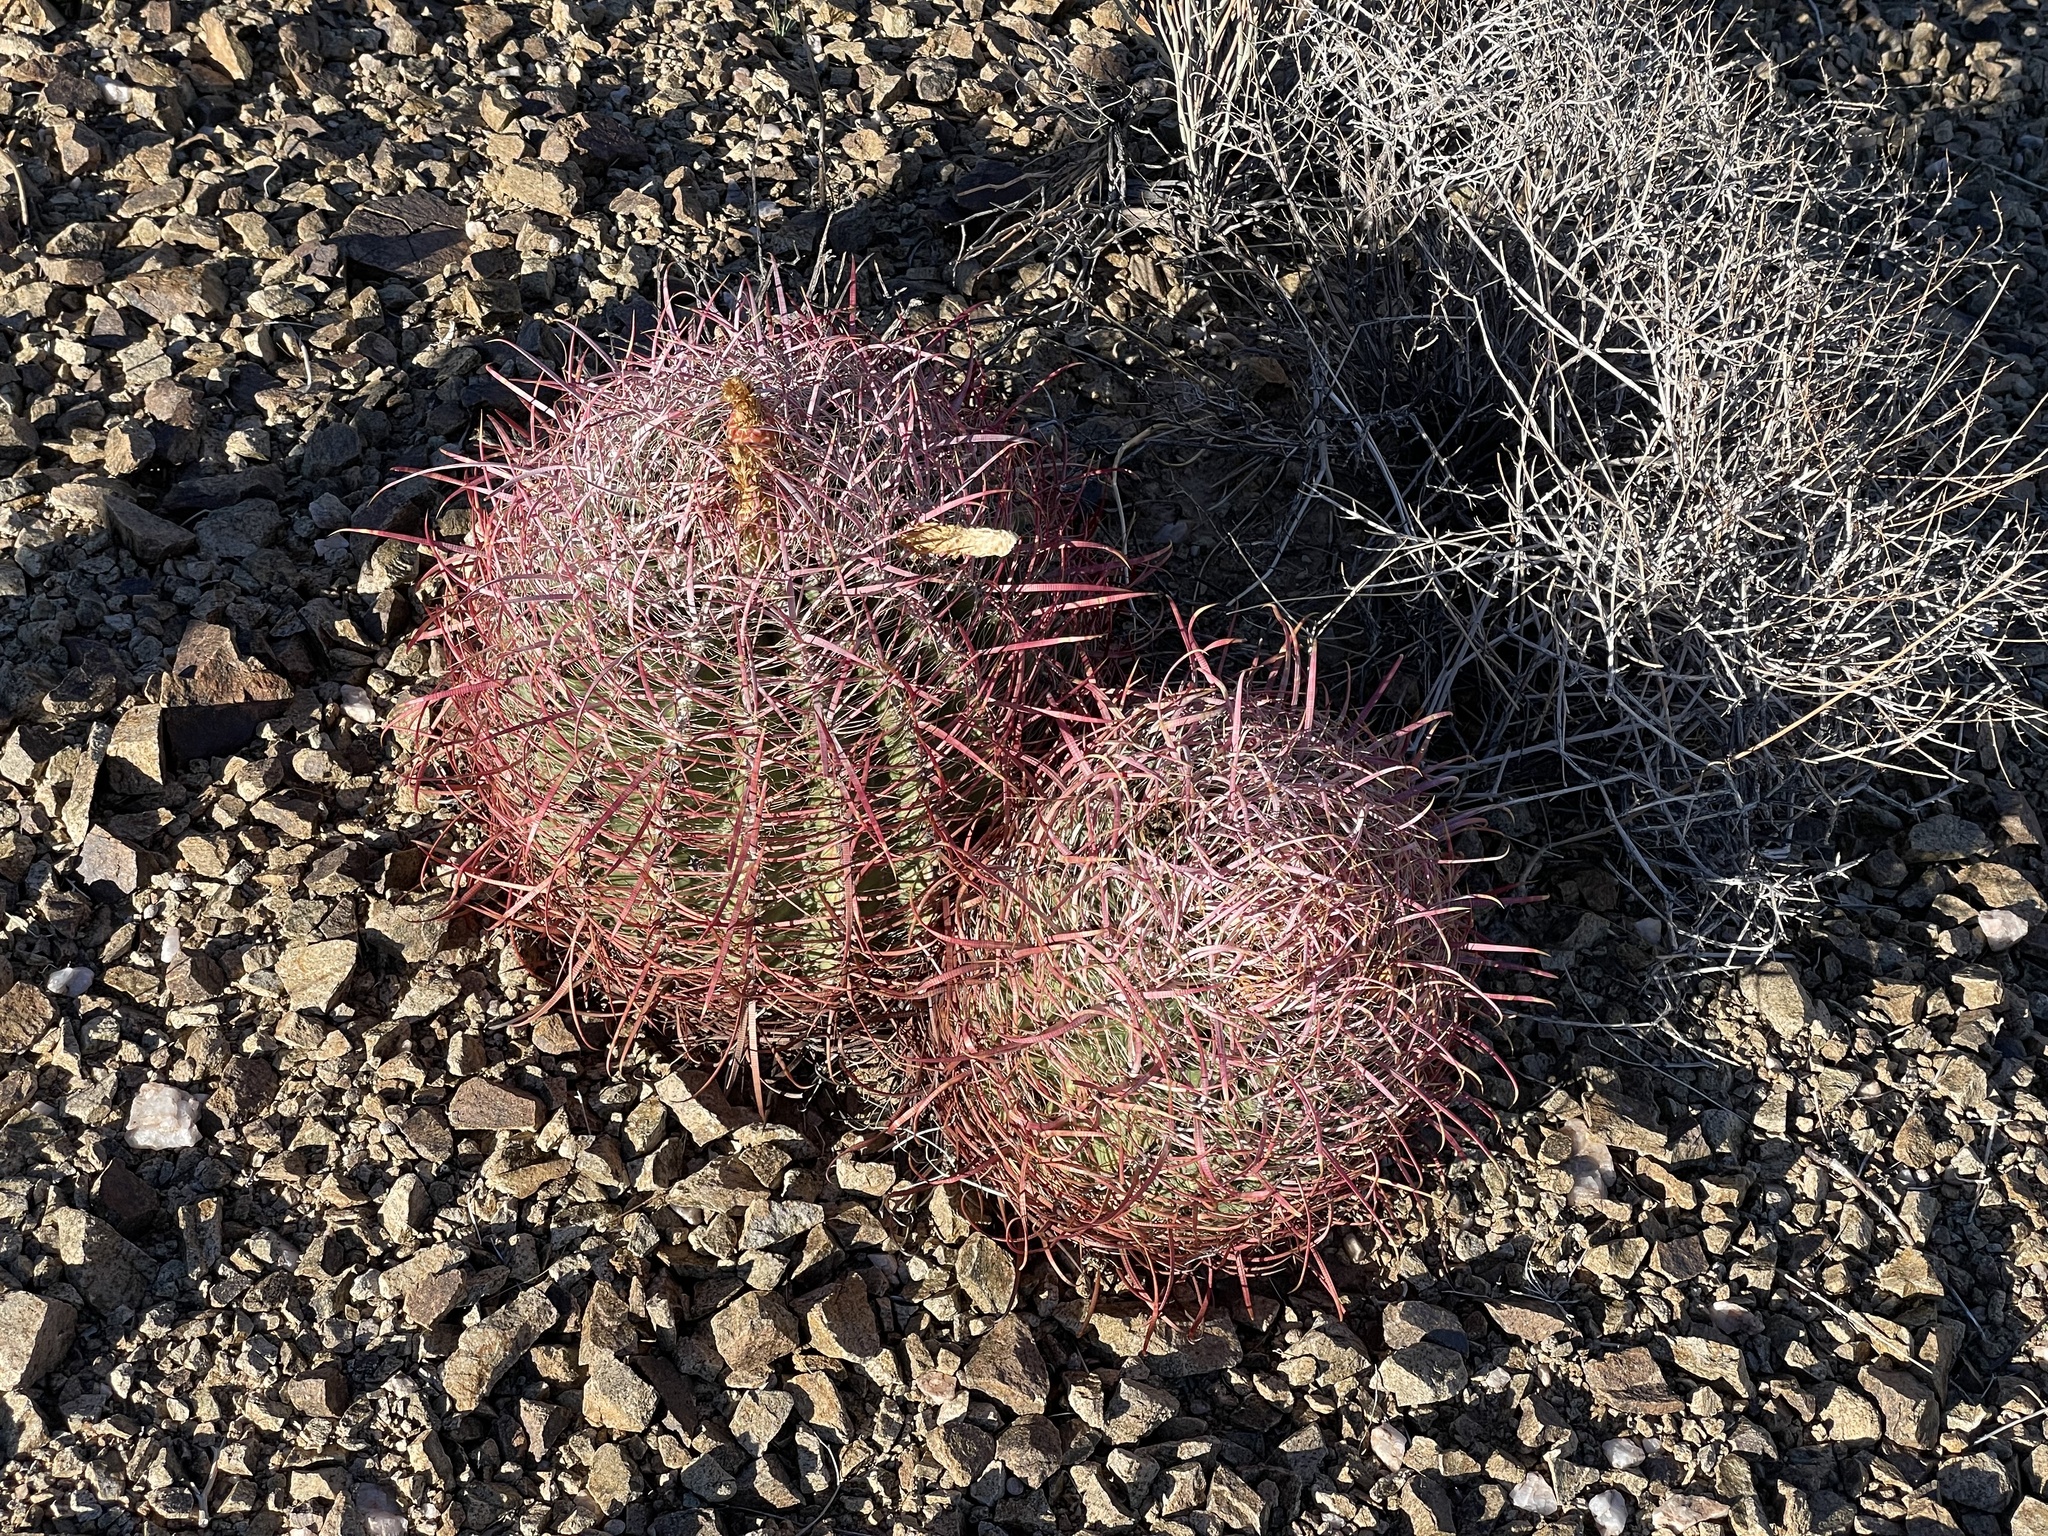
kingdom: Plantae
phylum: Tracheophyta
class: Magnoliopsida
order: Caryophyllales
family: Cactaceae
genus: Ferocactus
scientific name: Ferocactus cylindraceus
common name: California barrel cactus
